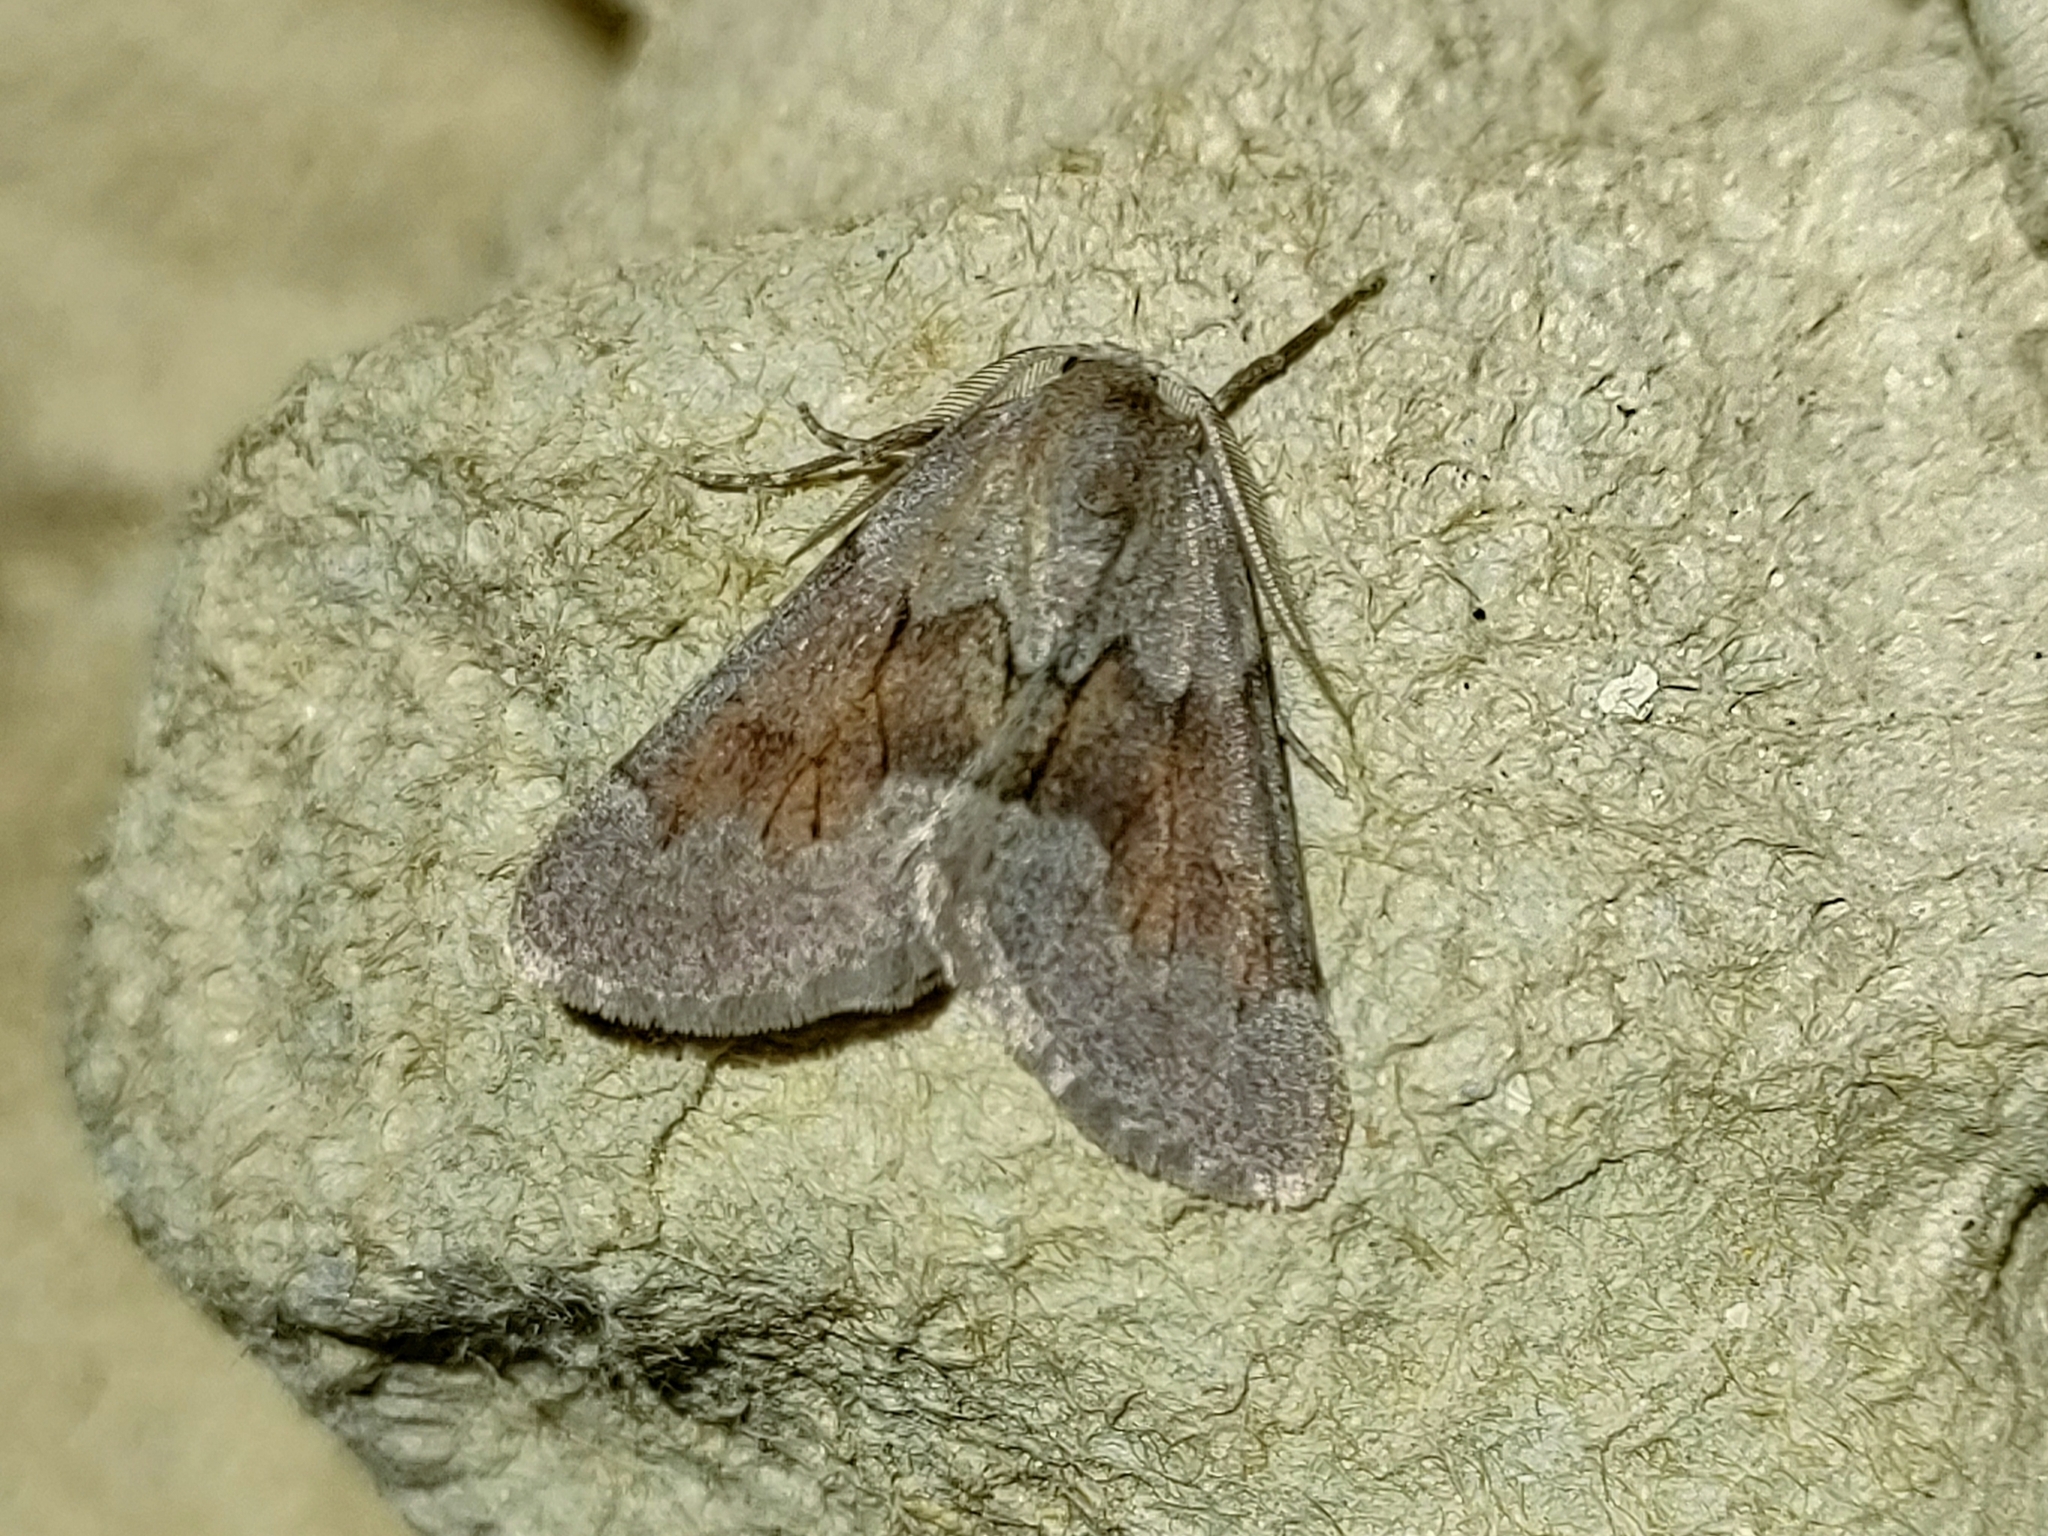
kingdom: Animalia
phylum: Arthropoda
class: Insecta
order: Lepidoptera
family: Geometridae
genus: Adalbertia
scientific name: Adalbertia castiliaria
